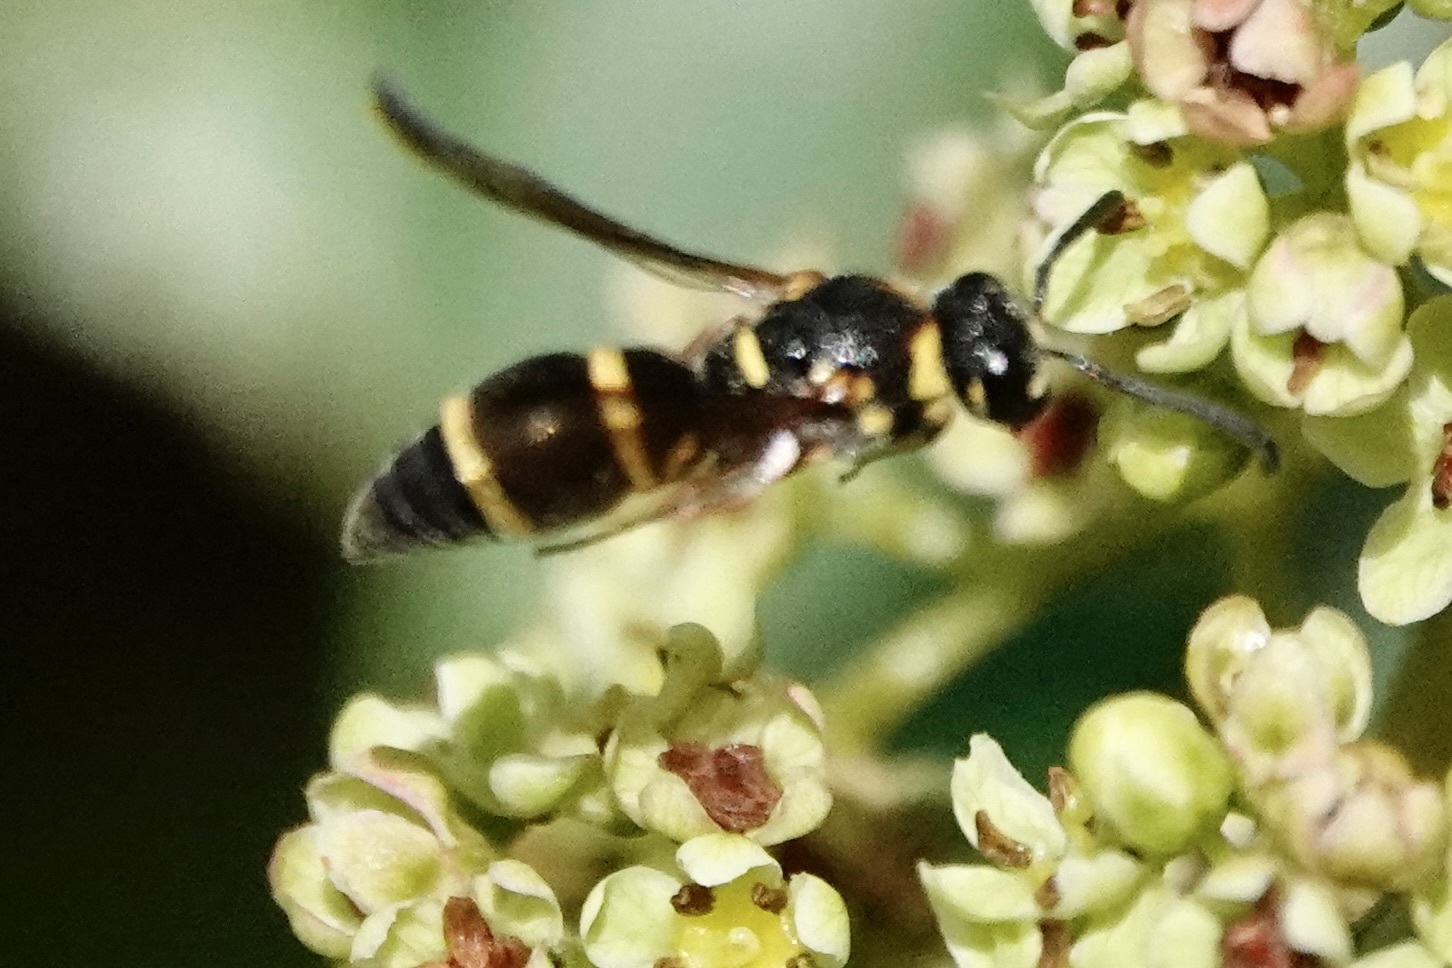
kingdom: Animalia
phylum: Arthropoda
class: Insecta
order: Hymenoptera
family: Eumenidae
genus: Parancistrocerus
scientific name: Parancistrocerus fulvipes
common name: Potter wasp
